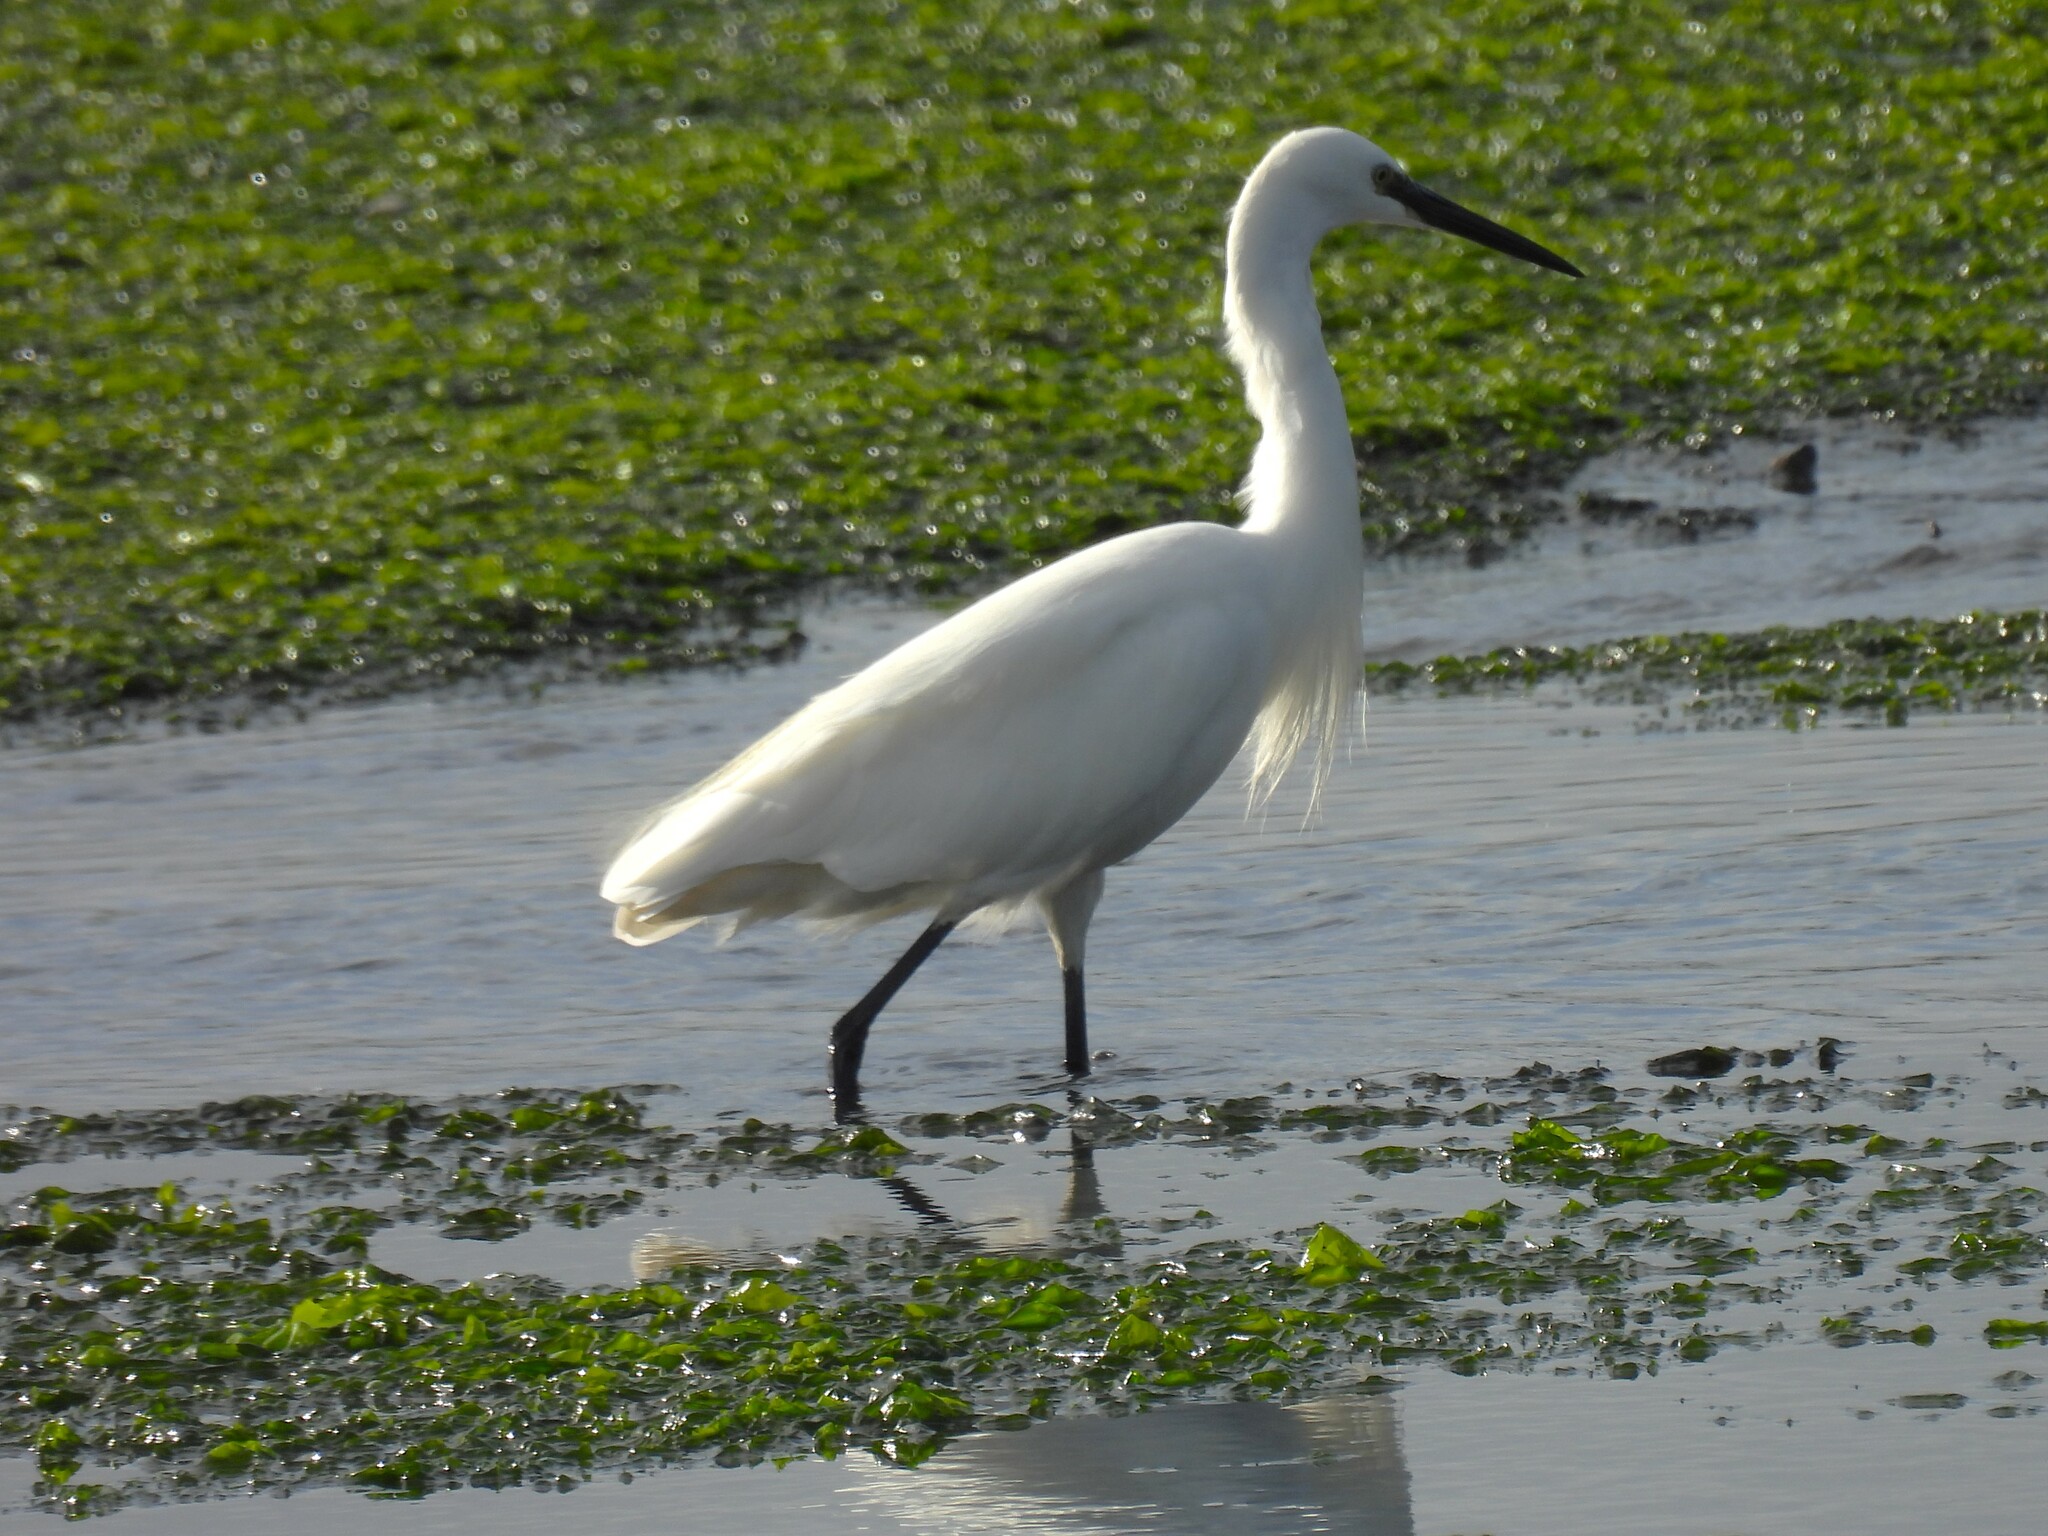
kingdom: Animalia
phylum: Chordata
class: Aves
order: Pelecaniformes
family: Ardeidae
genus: Egretta
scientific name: Egretta garzetta
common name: Little egret
